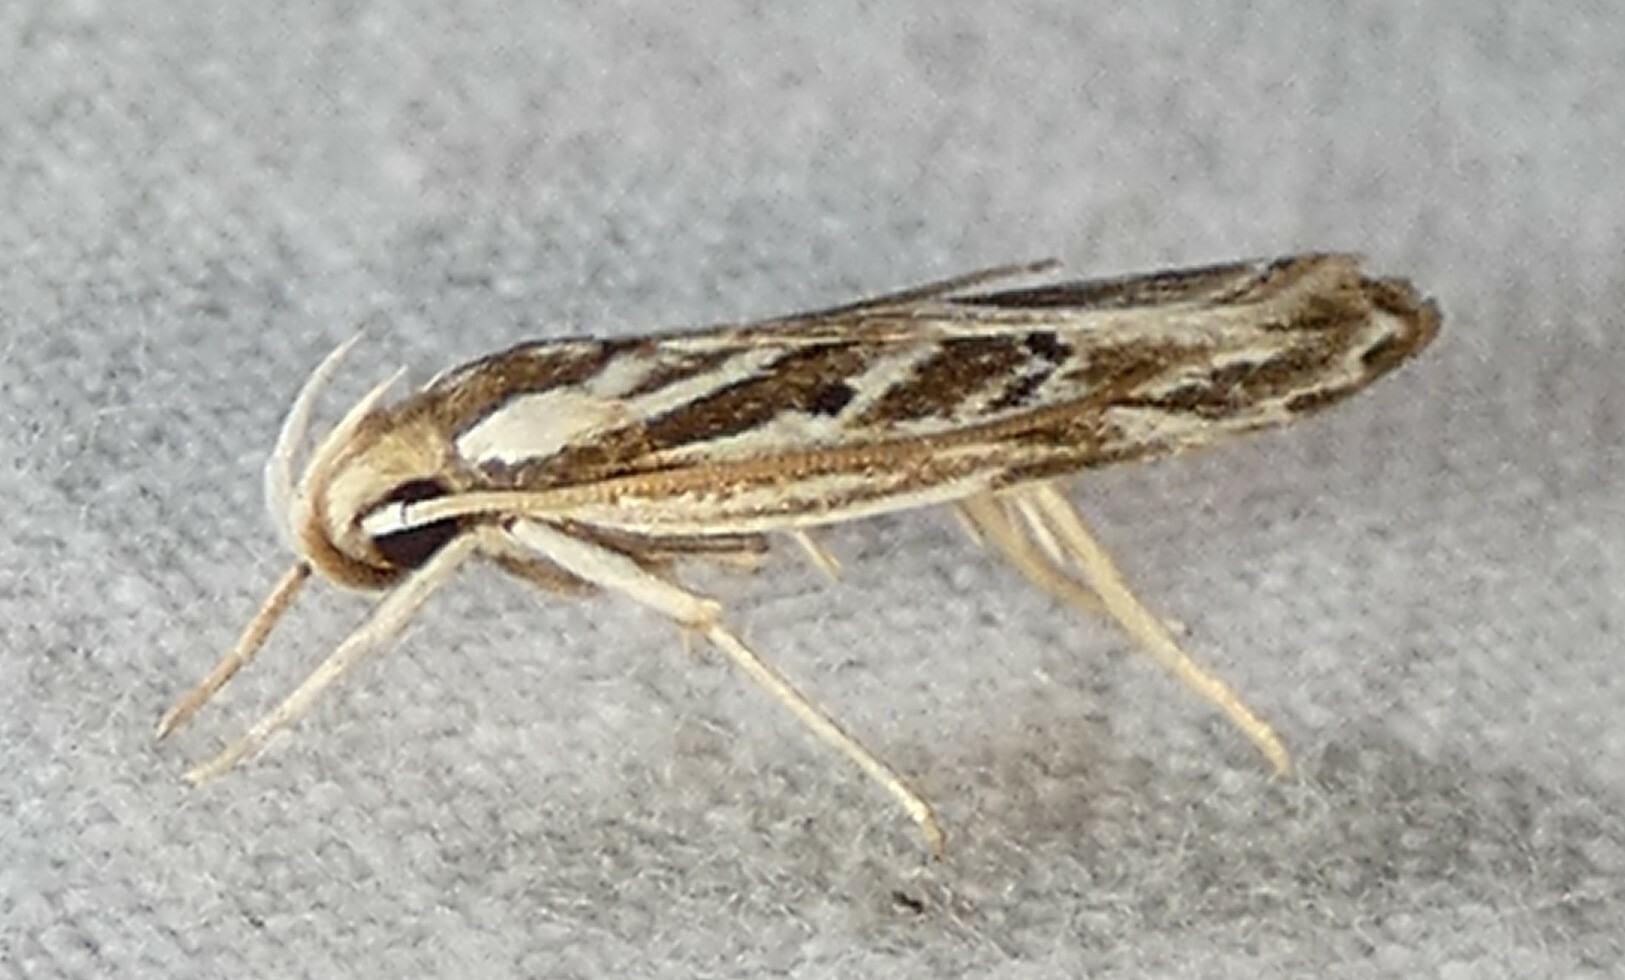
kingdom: Animalia
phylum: Arthropoda
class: Insecta
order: Lepidoptera
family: Depressariidae
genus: Eupragia
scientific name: Eupragia hospita
